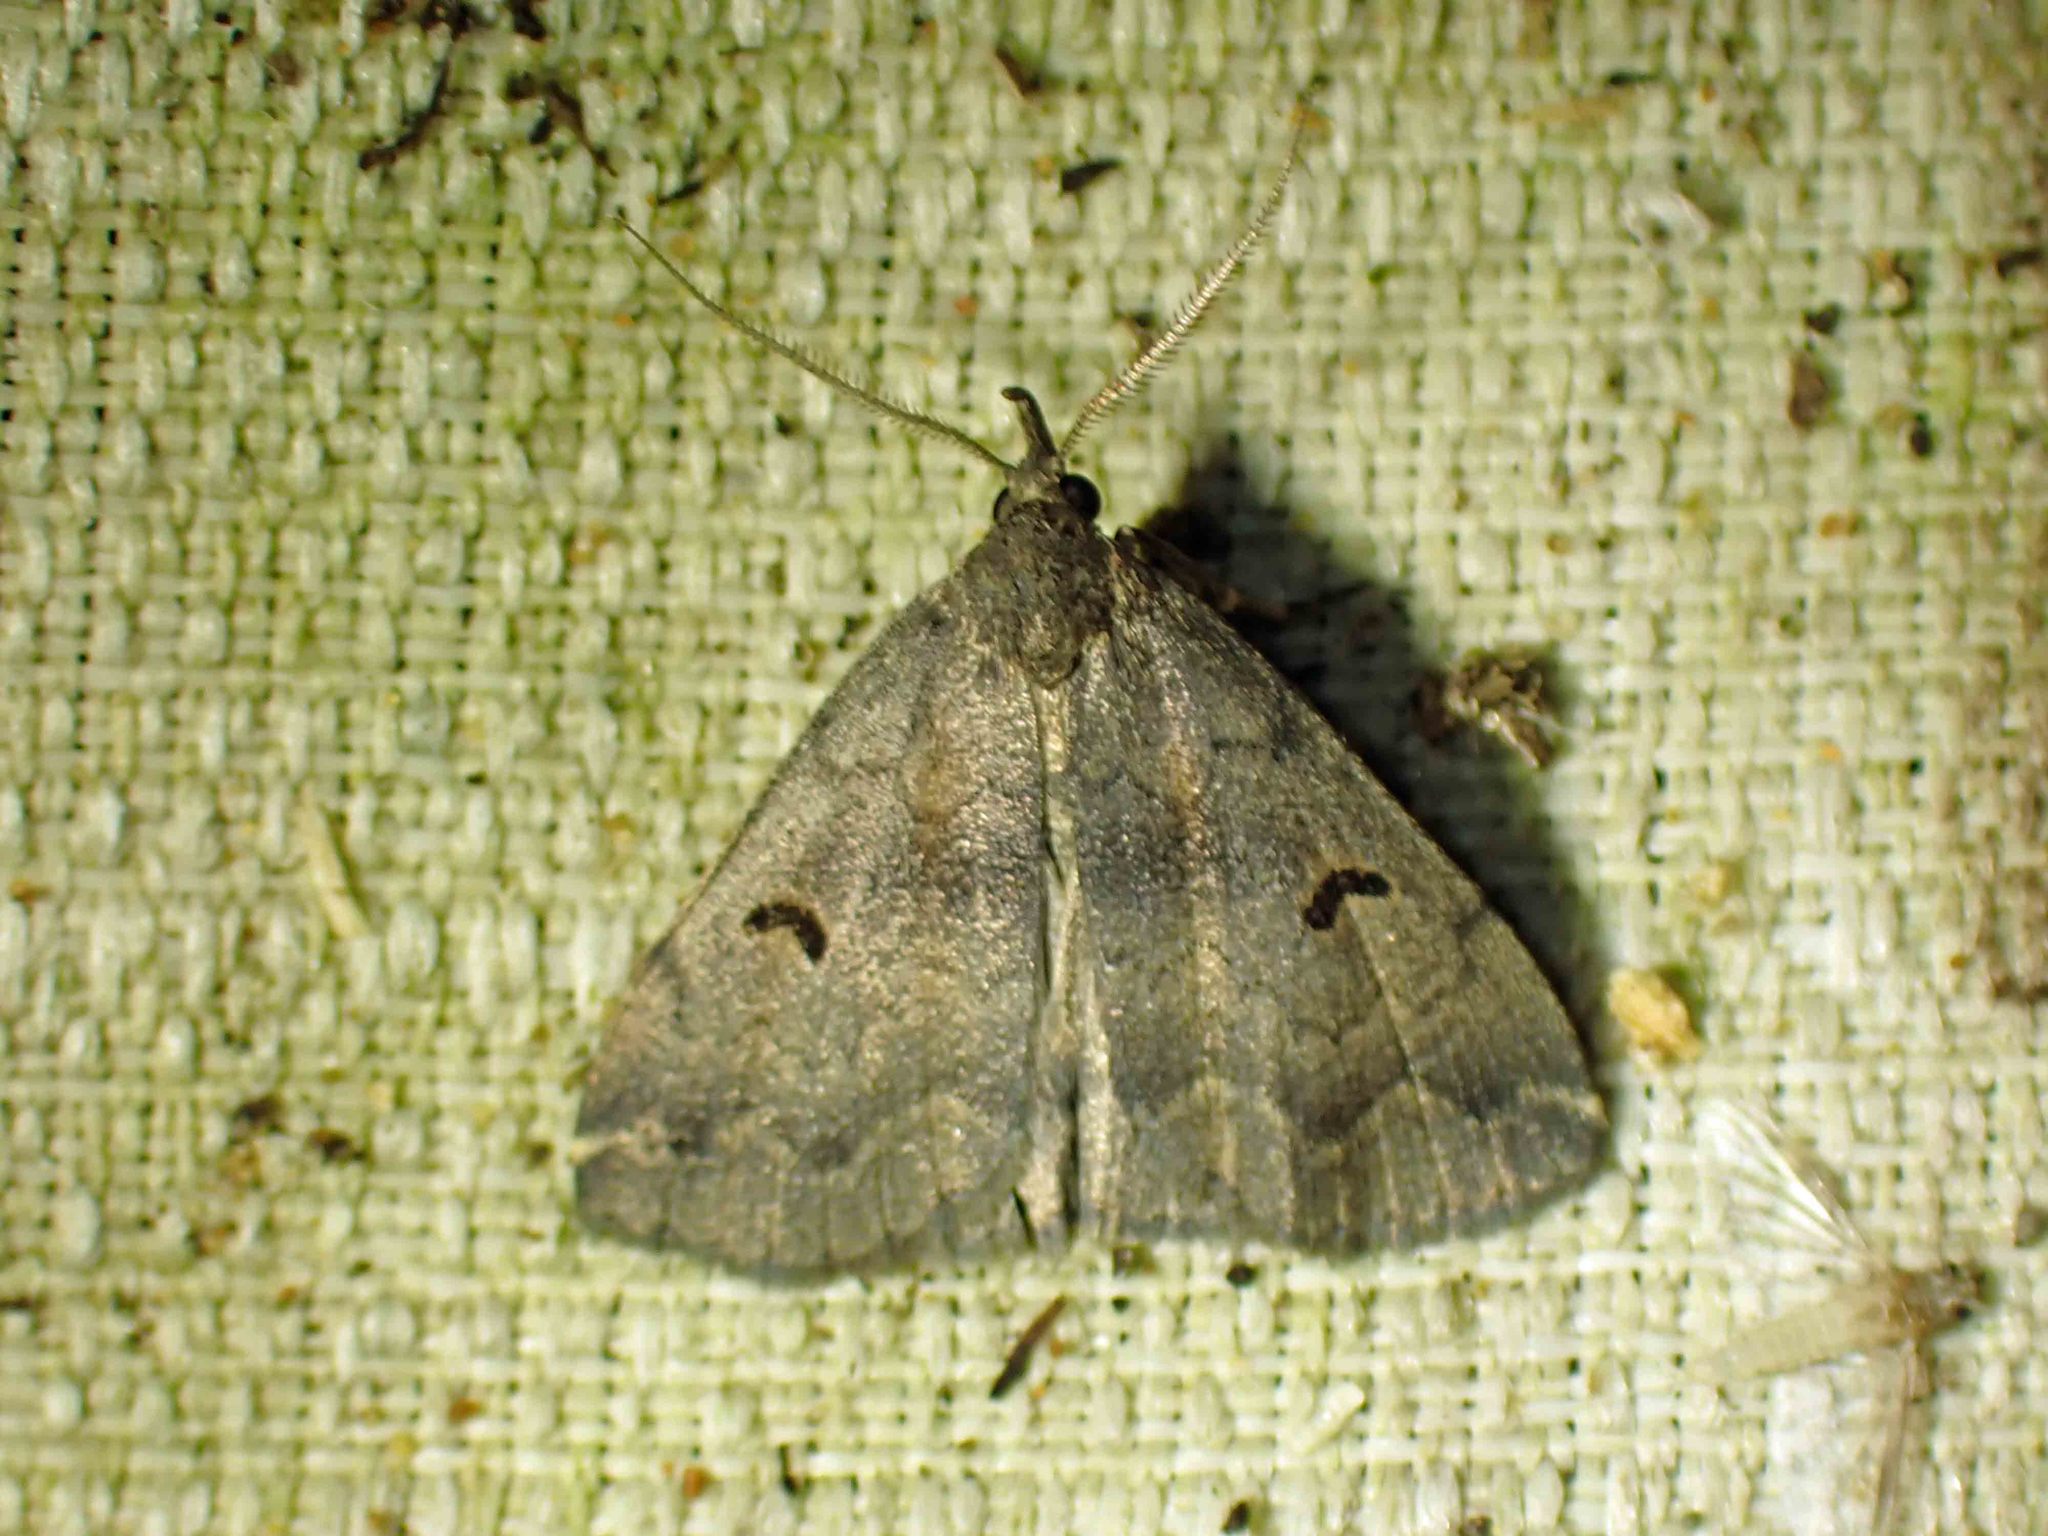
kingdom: Animalia
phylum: Arthropoda
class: Insecta
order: Lepidoptera
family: Erebidae
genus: Phalaenostola
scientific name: Phalaenostola hanhami
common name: Hanham's owlet
